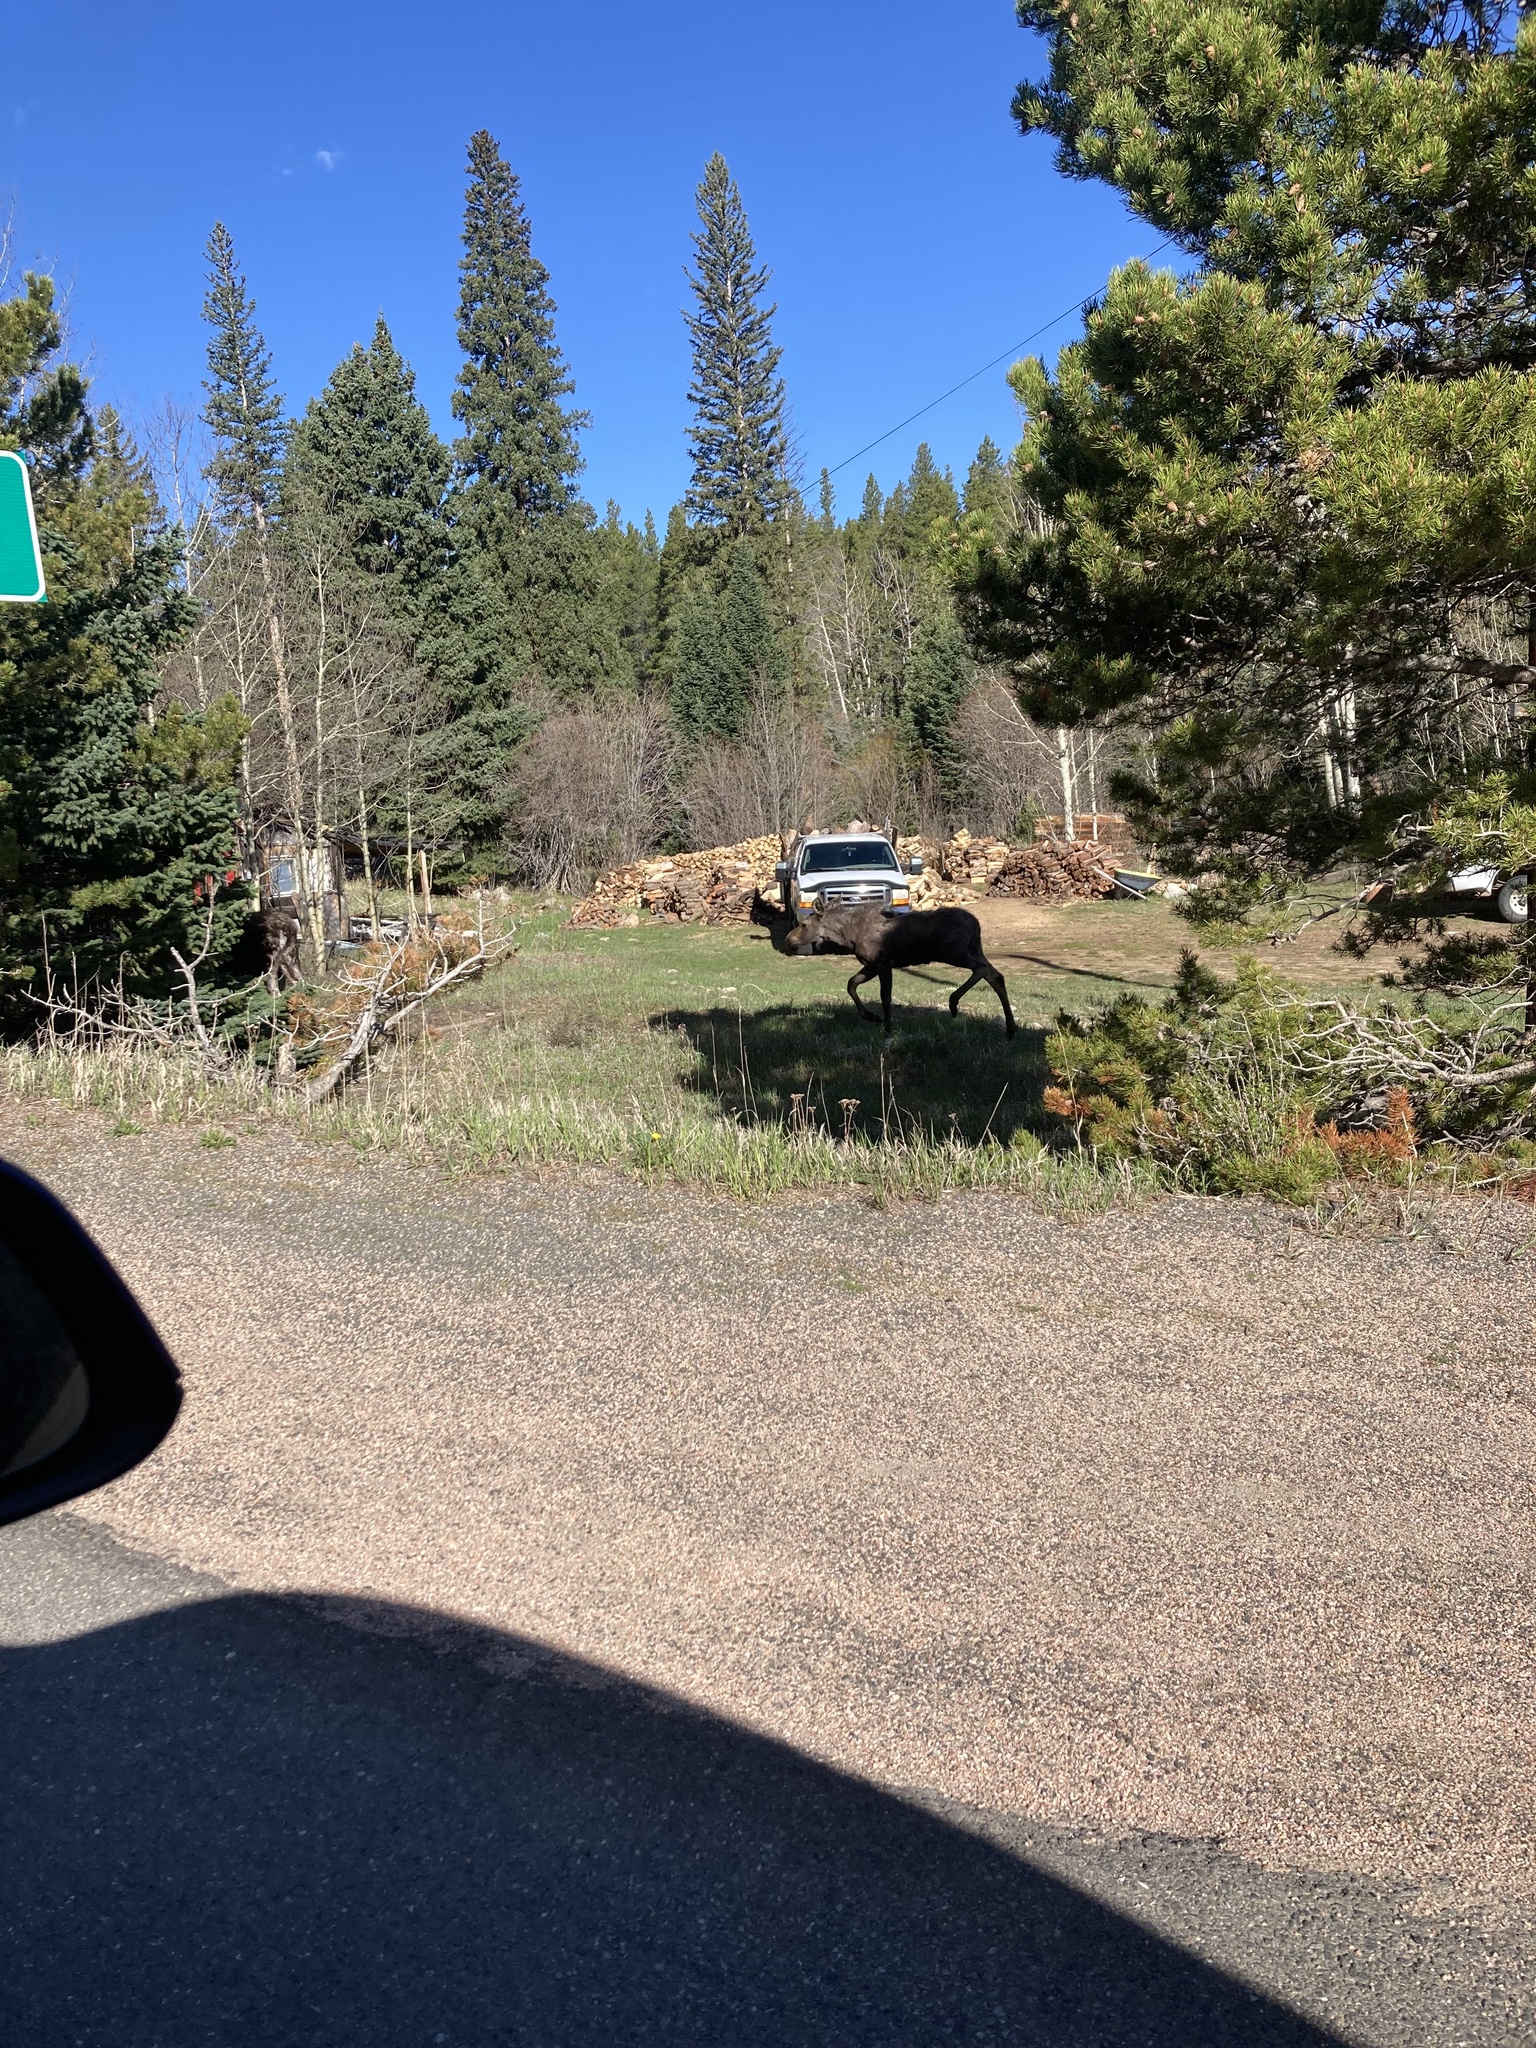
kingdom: Animalia
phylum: Chordata
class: Mammalia
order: Artiodactyla
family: Cervidae
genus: Alces
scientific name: Alces alces
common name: Moose
